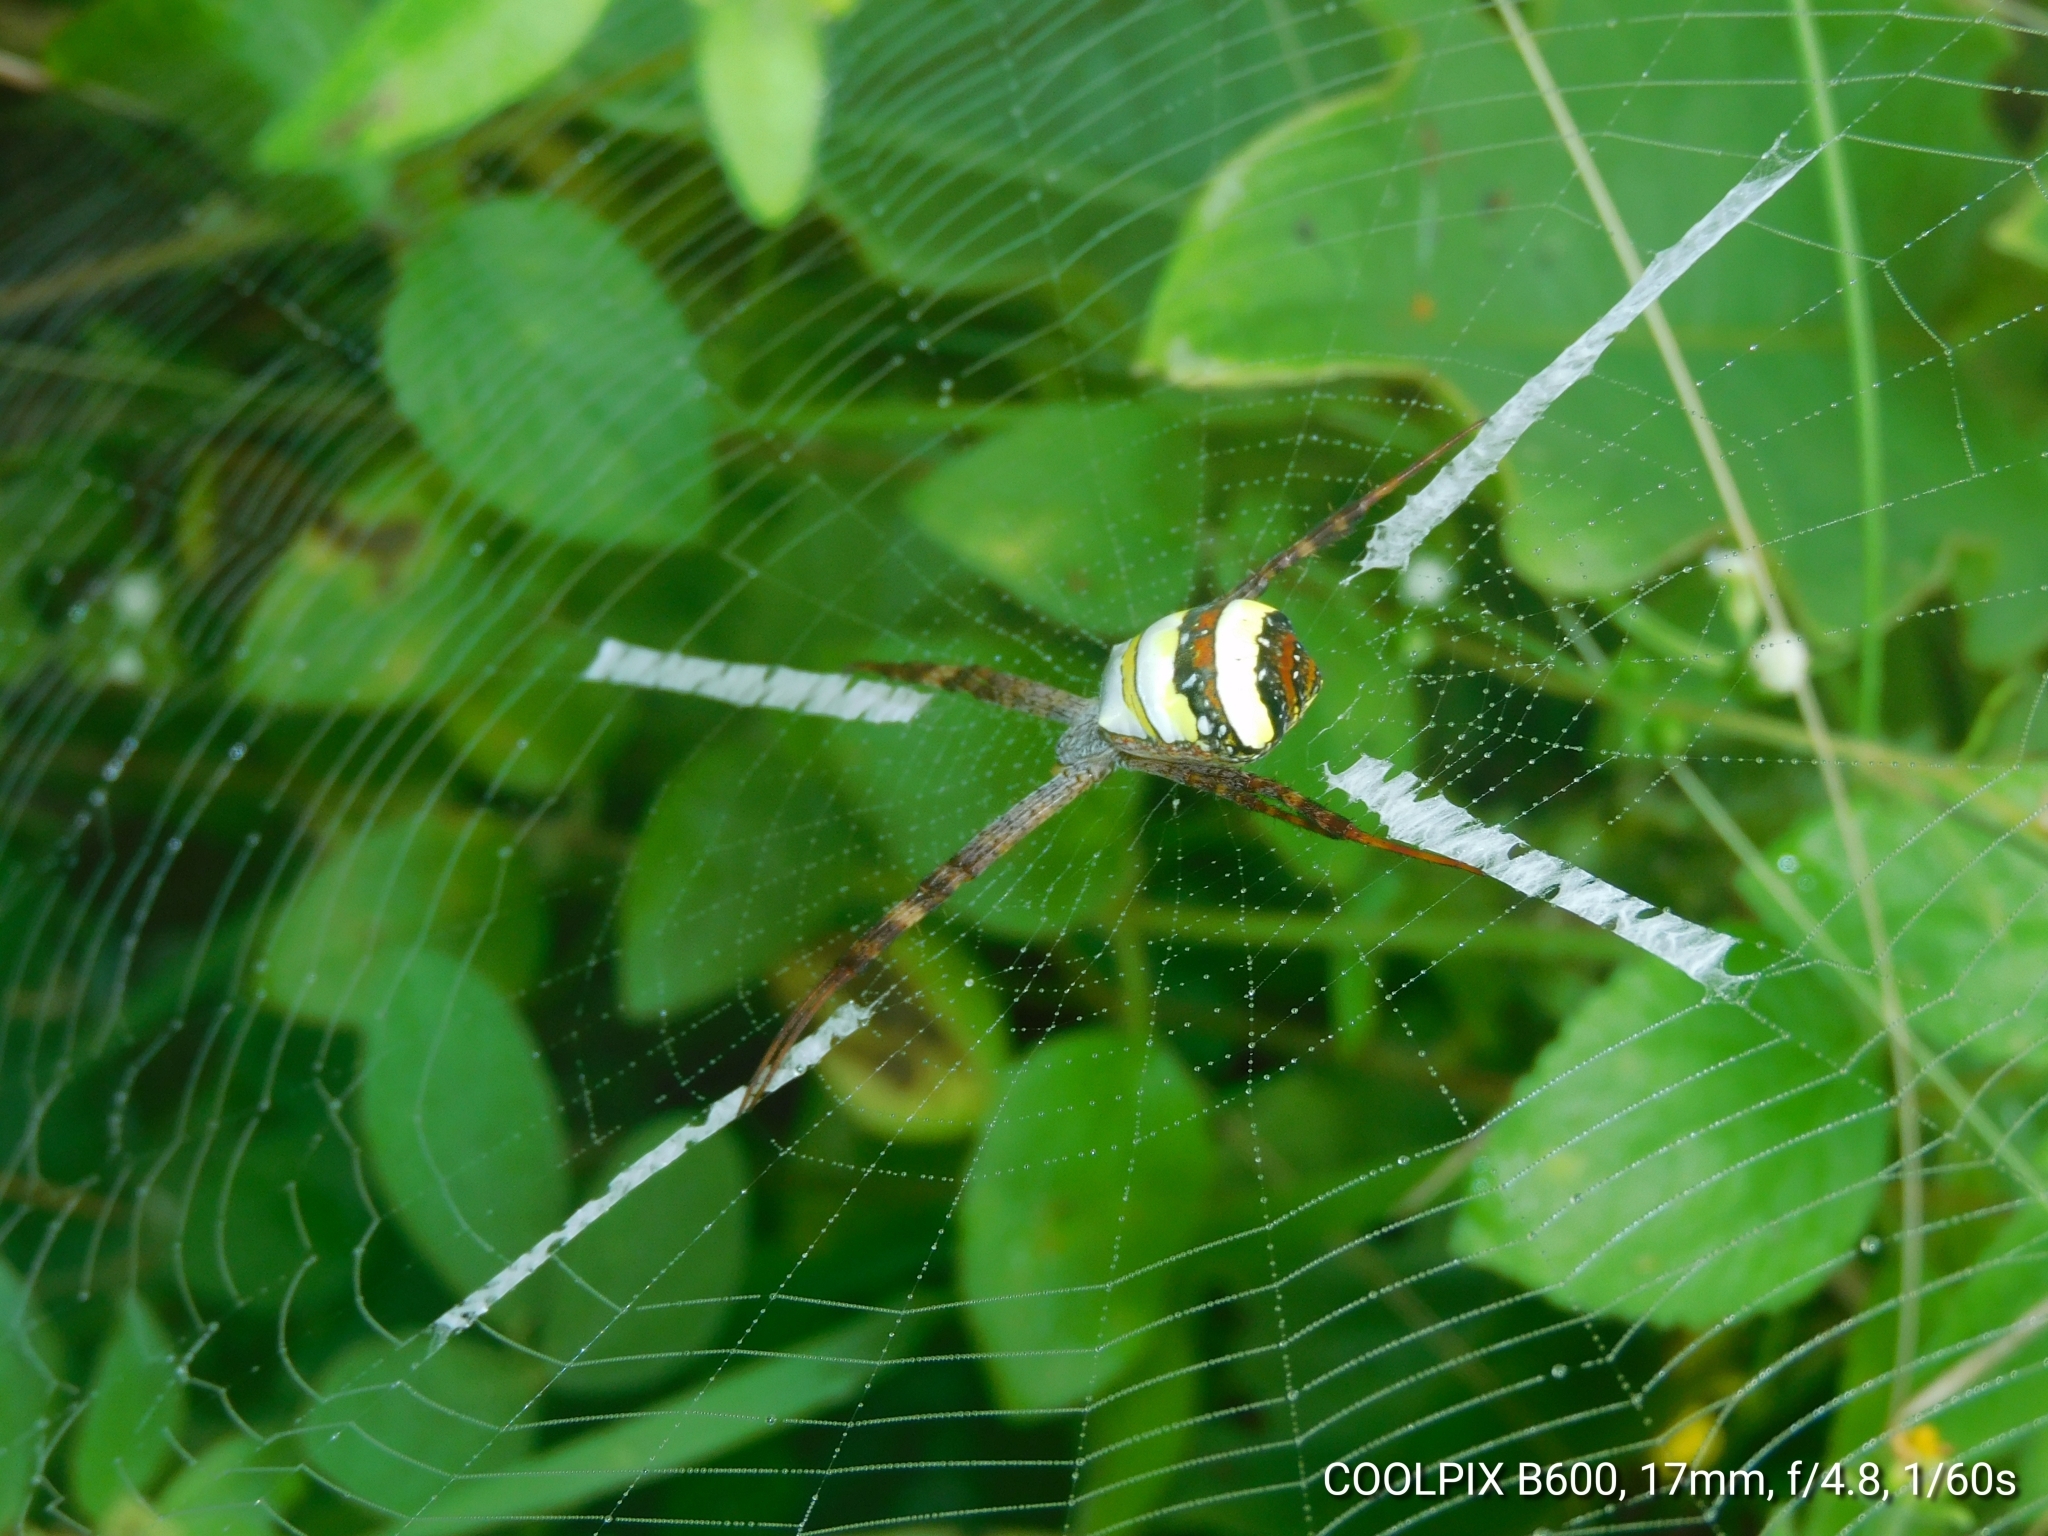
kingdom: Animalia
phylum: Arthropoda
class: Arachnida
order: Araneae
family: Araneidae
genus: Argiope
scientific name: Argiope pulchella
